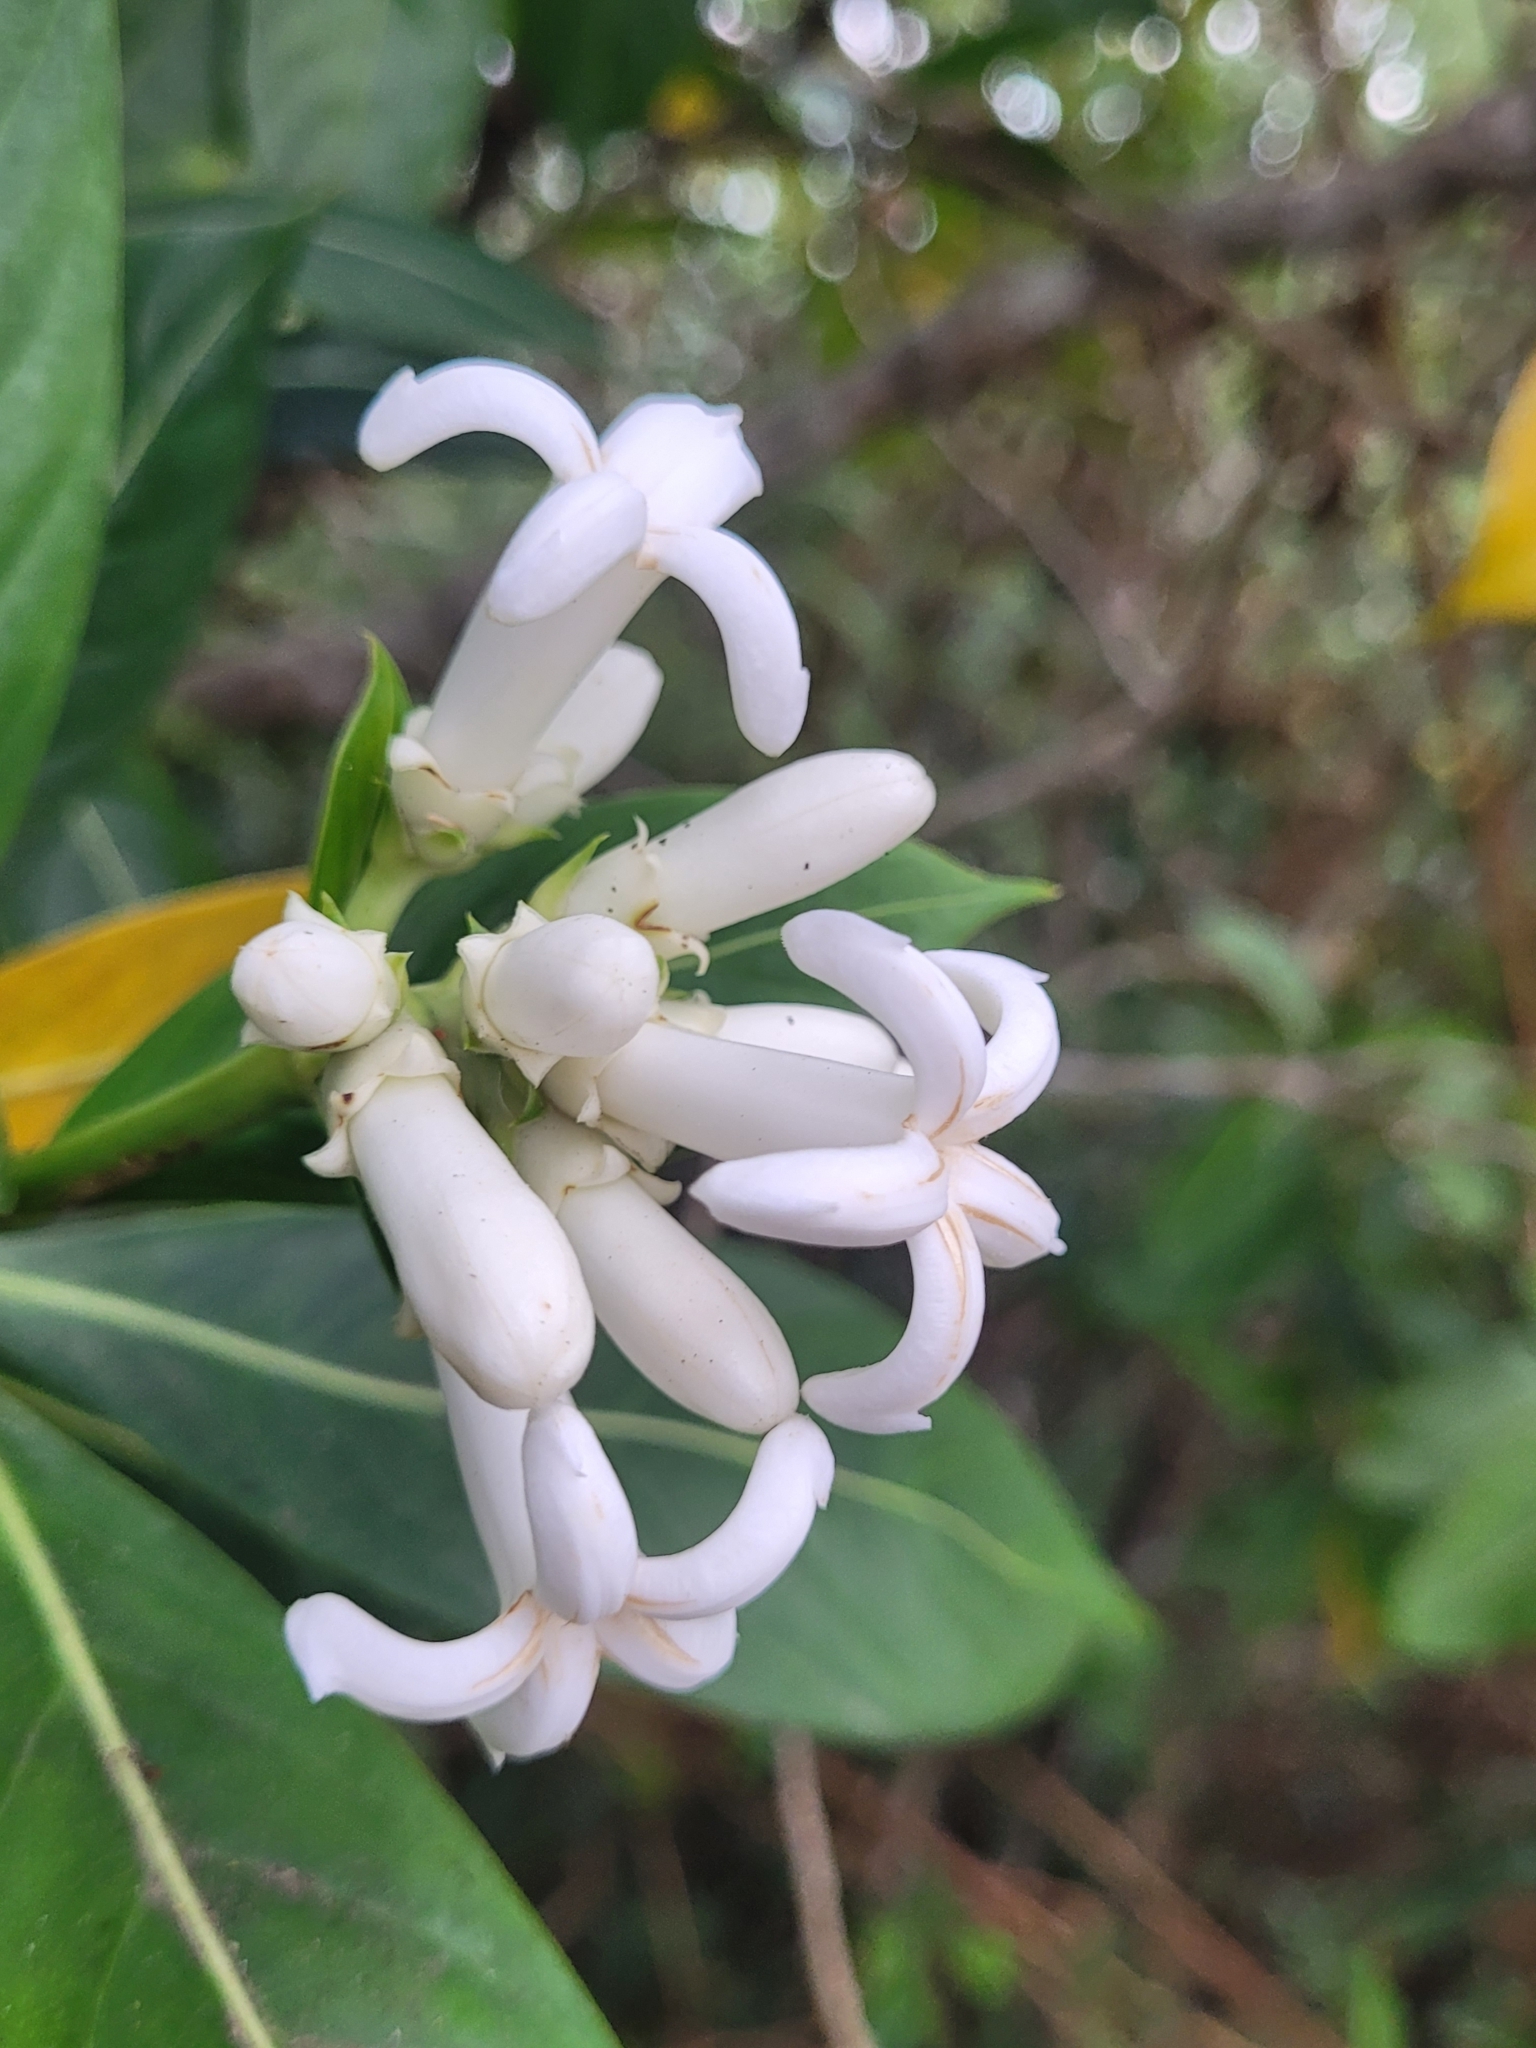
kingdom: Plantae
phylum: Tracheophyta
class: Magnoliopsida
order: Gentianales
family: Rubiaceae
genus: Gaertnera
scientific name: Gaertnera vaginata
